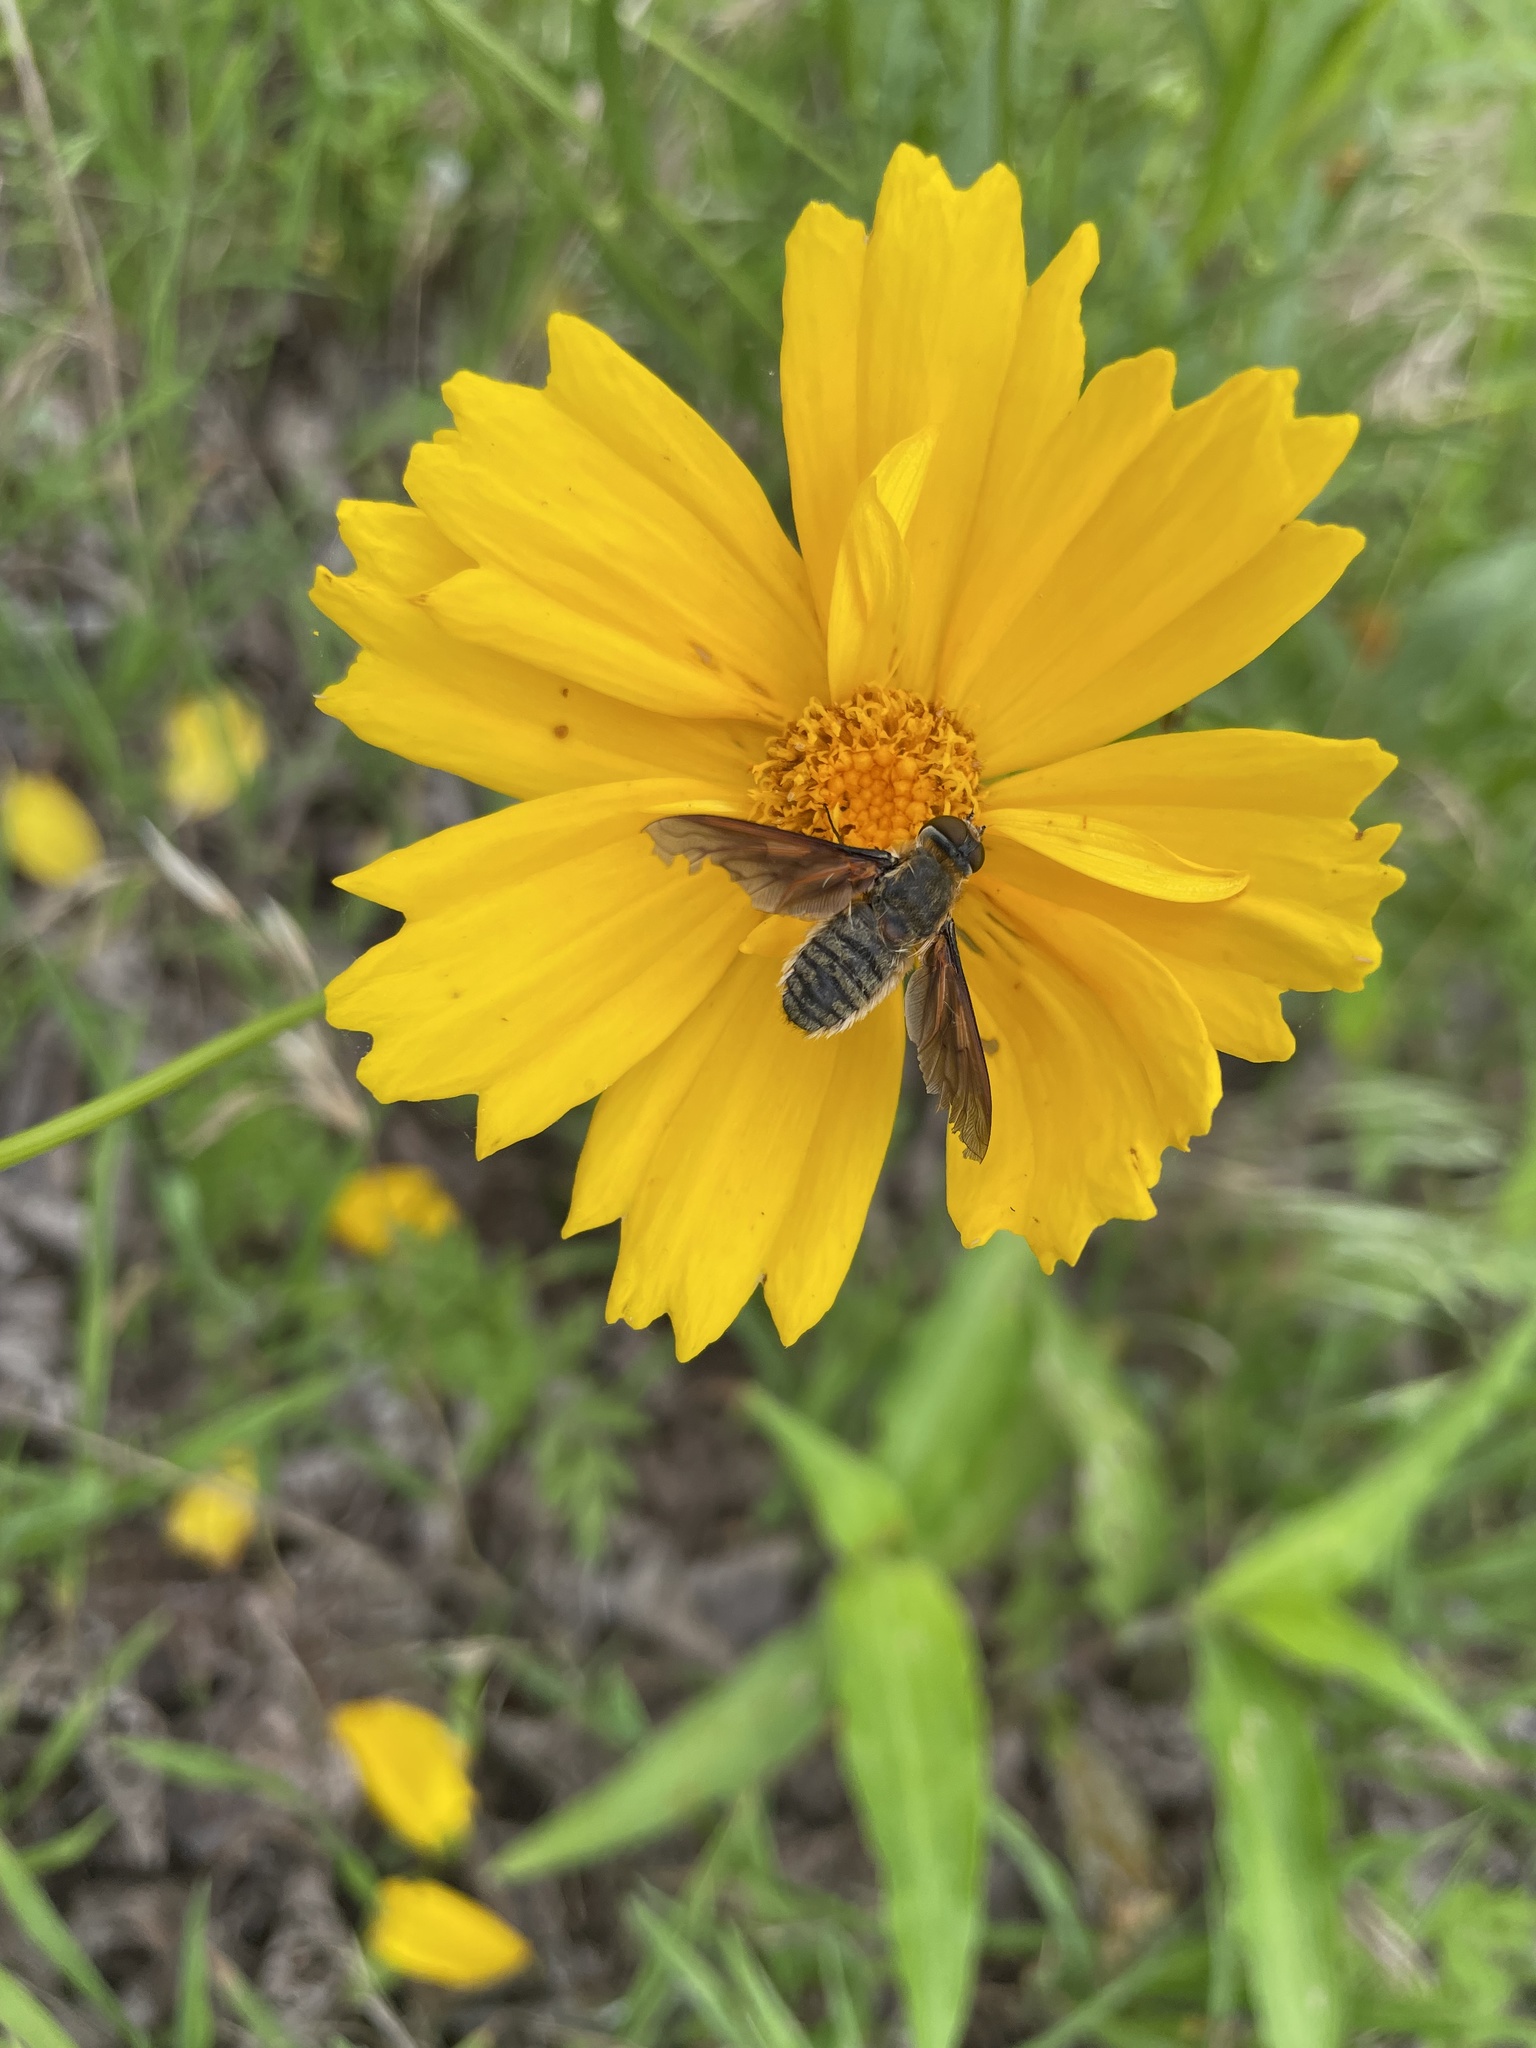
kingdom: Animalia
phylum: Arthropoda
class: Insecta
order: Diptera
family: Bombyliidae
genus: Poecilanthrax
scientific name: Poecilanthrax lucifer
